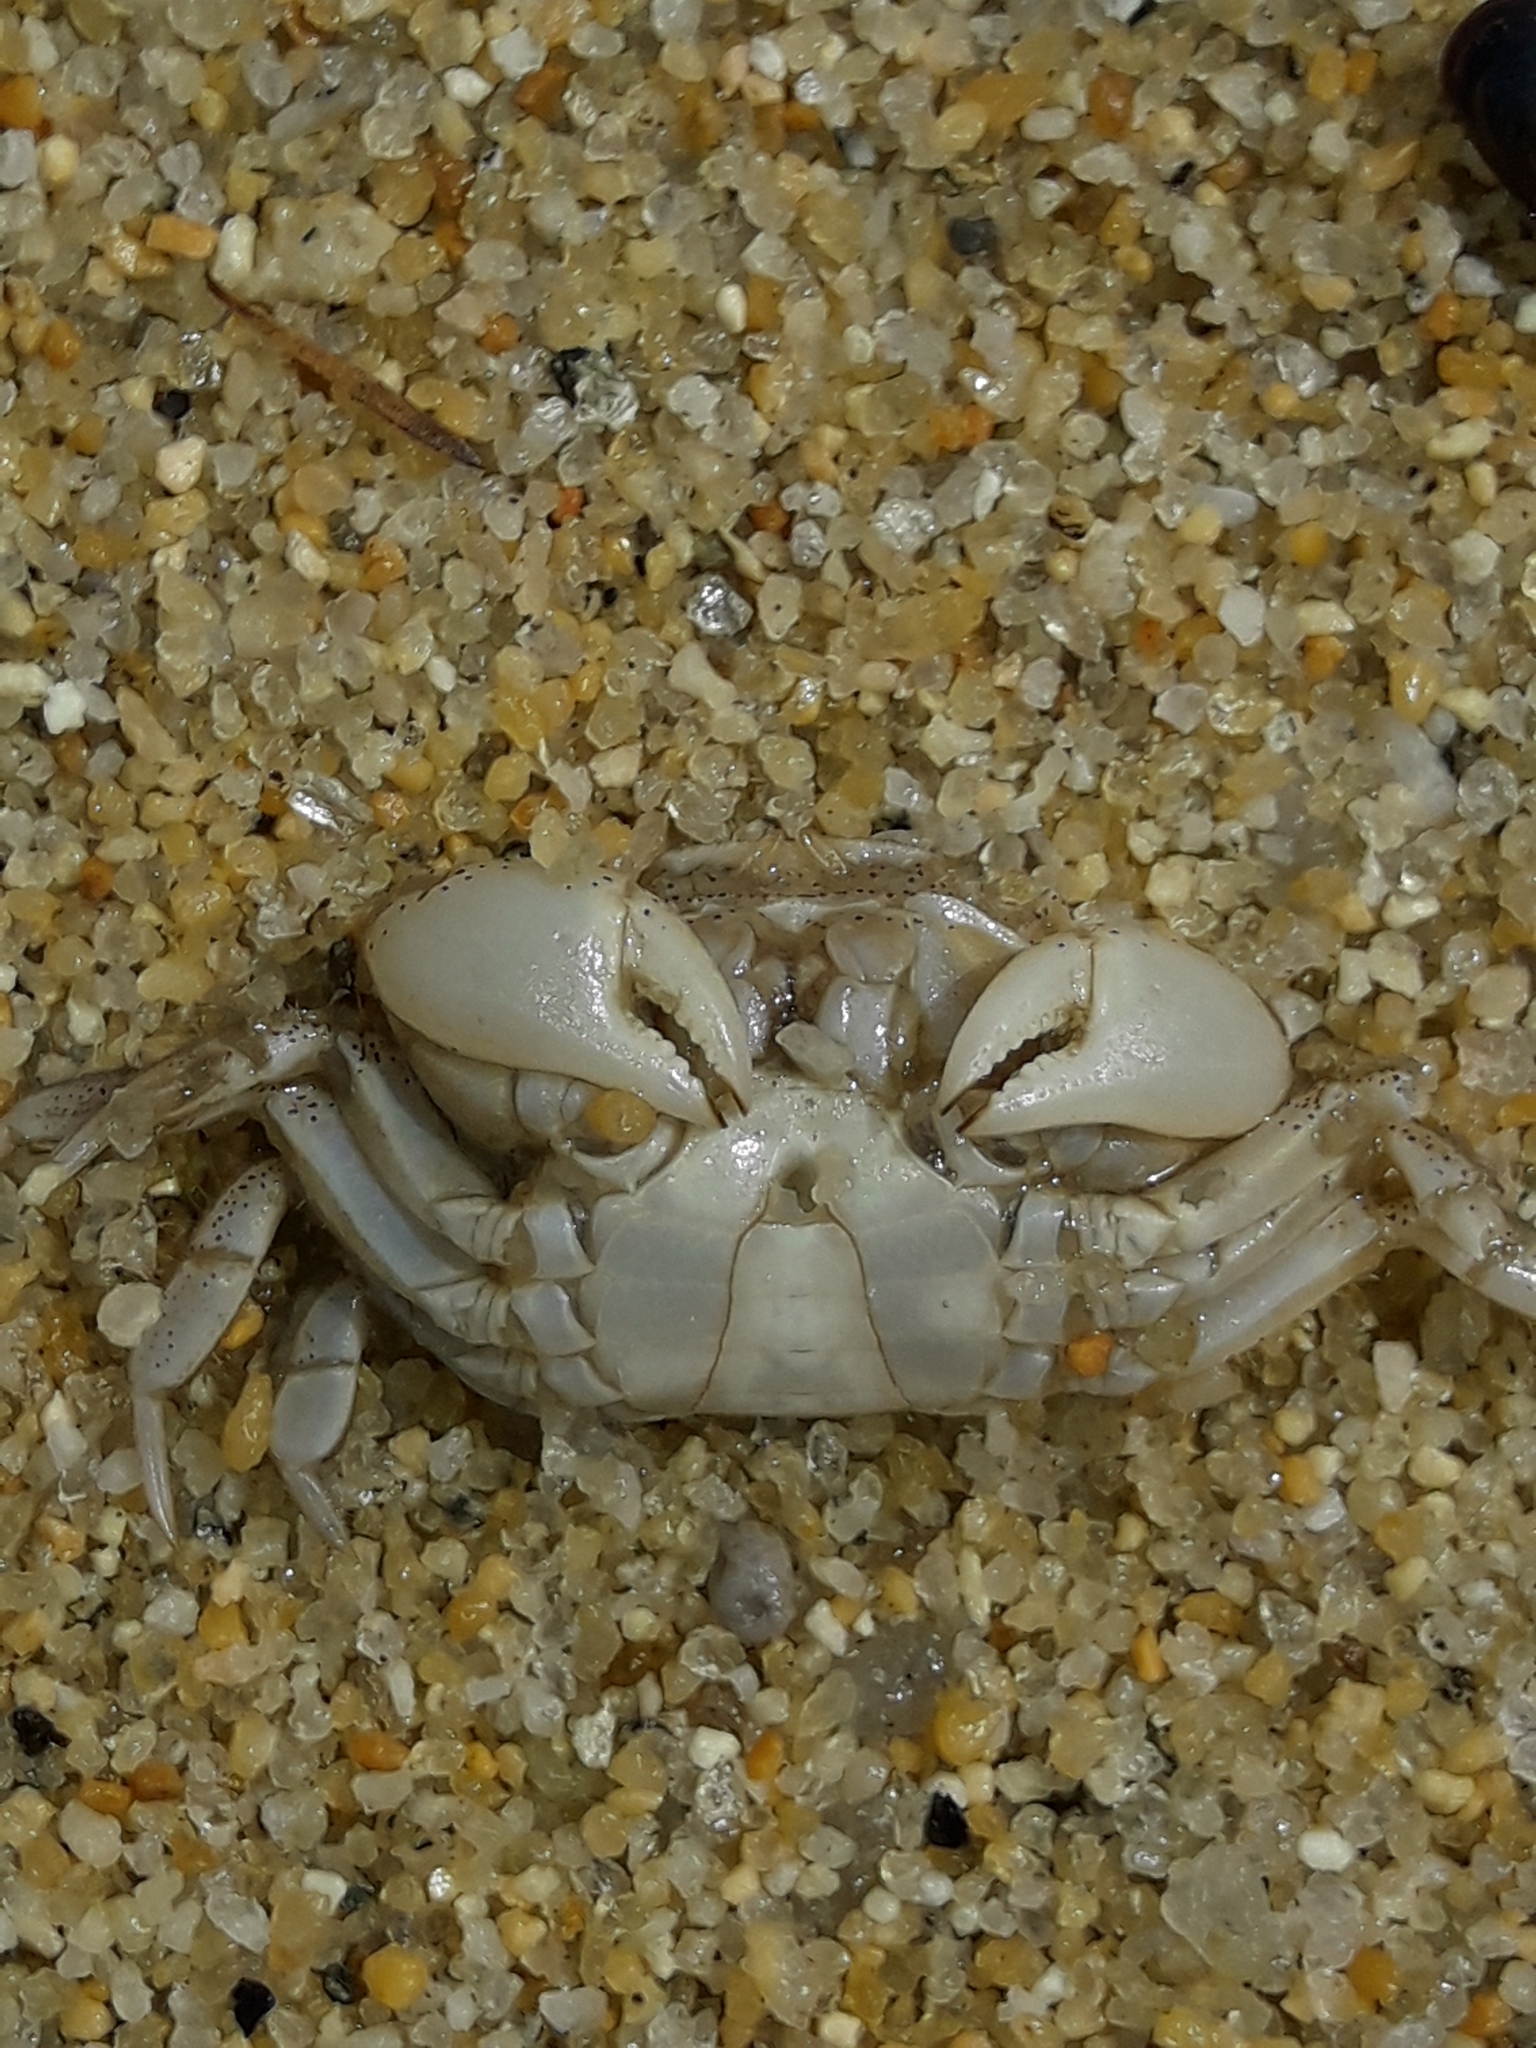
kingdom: Animalia
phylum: Arthropoda
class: Malacostraca
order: Decapoda
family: Varunidae
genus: Hemigrapsus
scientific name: Hemigrapsus crenulatus
